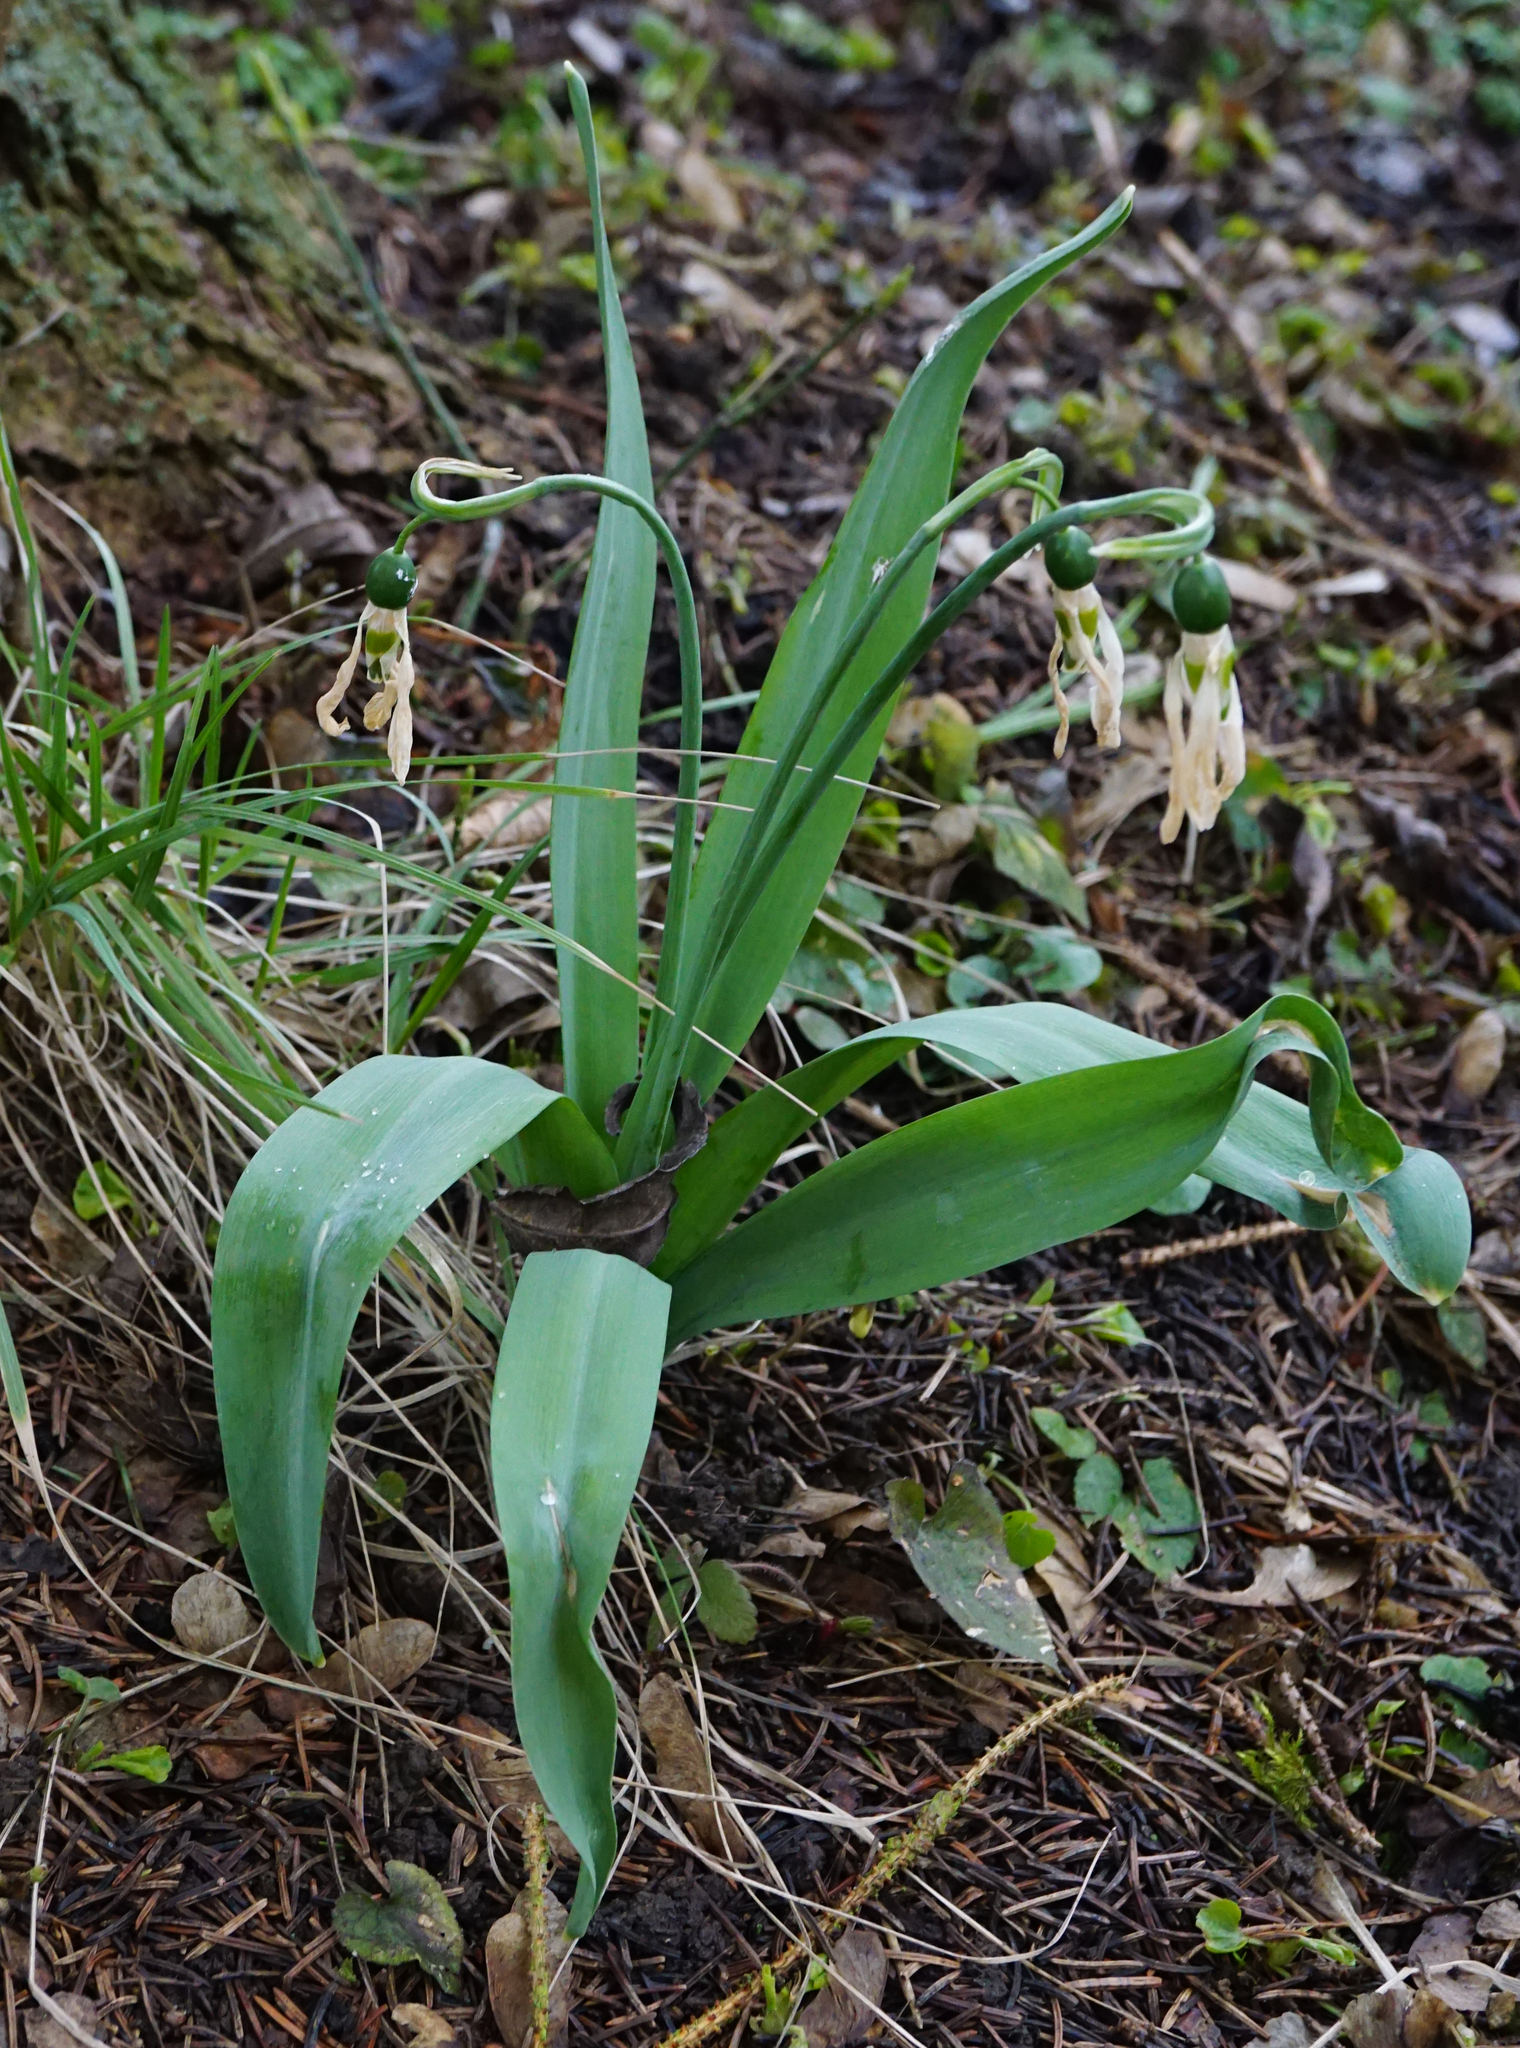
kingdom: Plantae
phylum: Tracheophyta
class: Liliopsida
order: Asparagales
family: Amaryllidaceae
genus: Galanthus
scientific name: Galanthus elwesii
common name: Greater snowdrop
